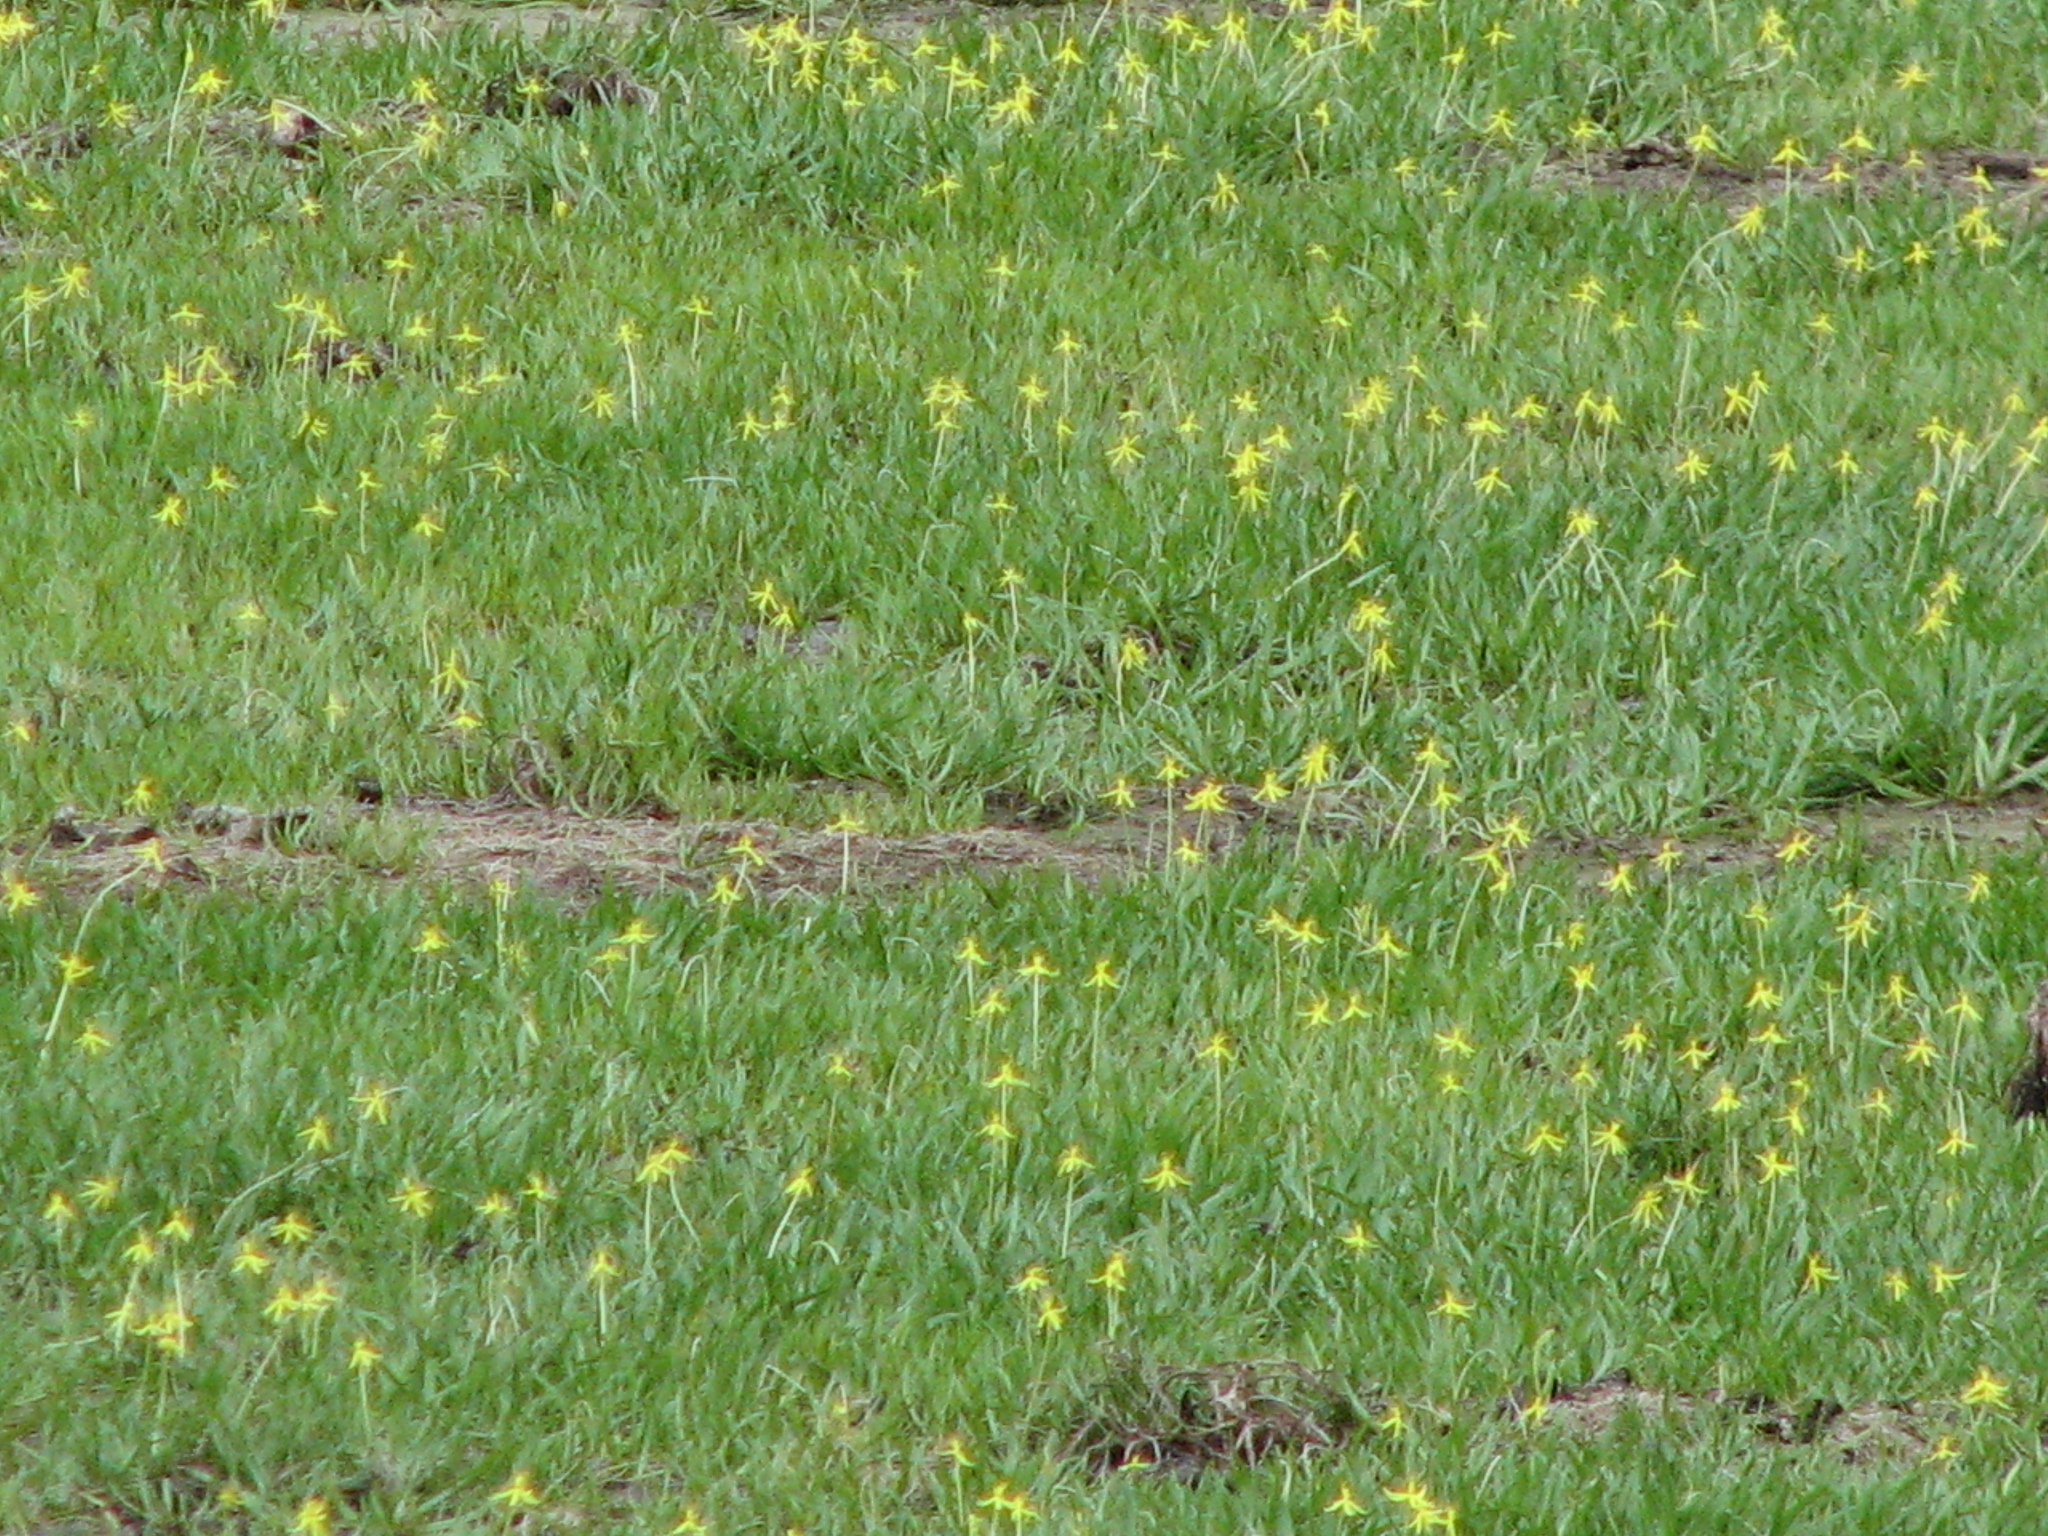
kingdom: Plantae
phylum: Tracheophyta
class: Liliopsida
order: Commelinales
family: Pontederiaceae
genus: Heteranthera
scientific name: Heteranthera dubia
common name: Grass-leaved mud plantain
